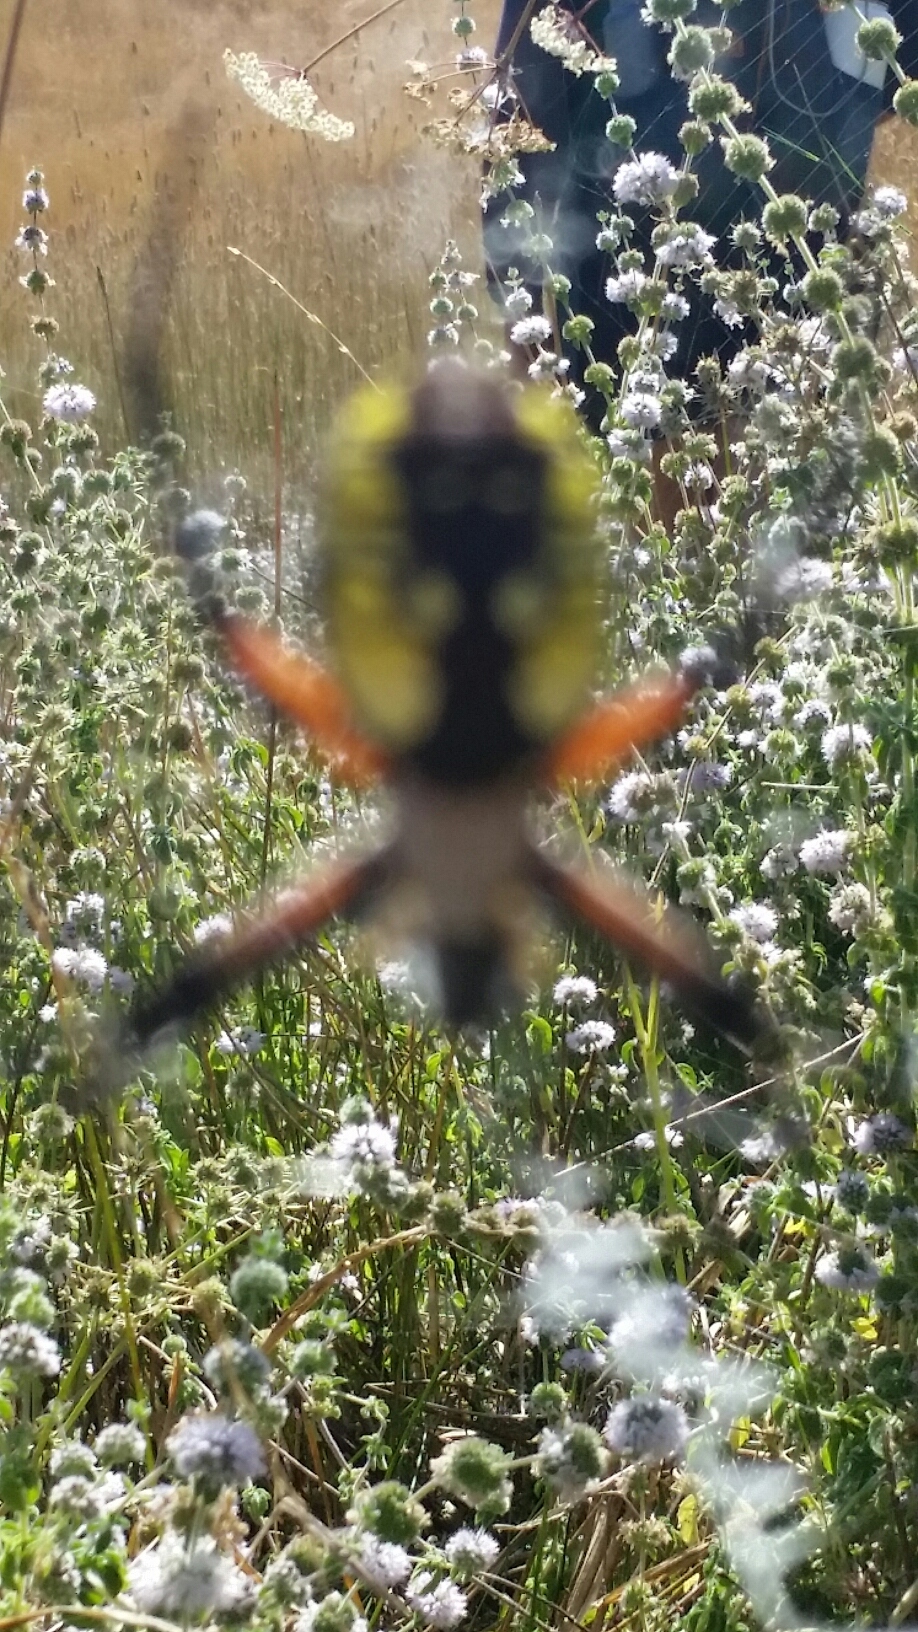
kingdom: Animalia
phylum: Arthropoda
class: Arachnida
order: Araneae
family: Araneidae
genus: Argiope
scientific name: Argiope aurantia
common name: Orb weavers
